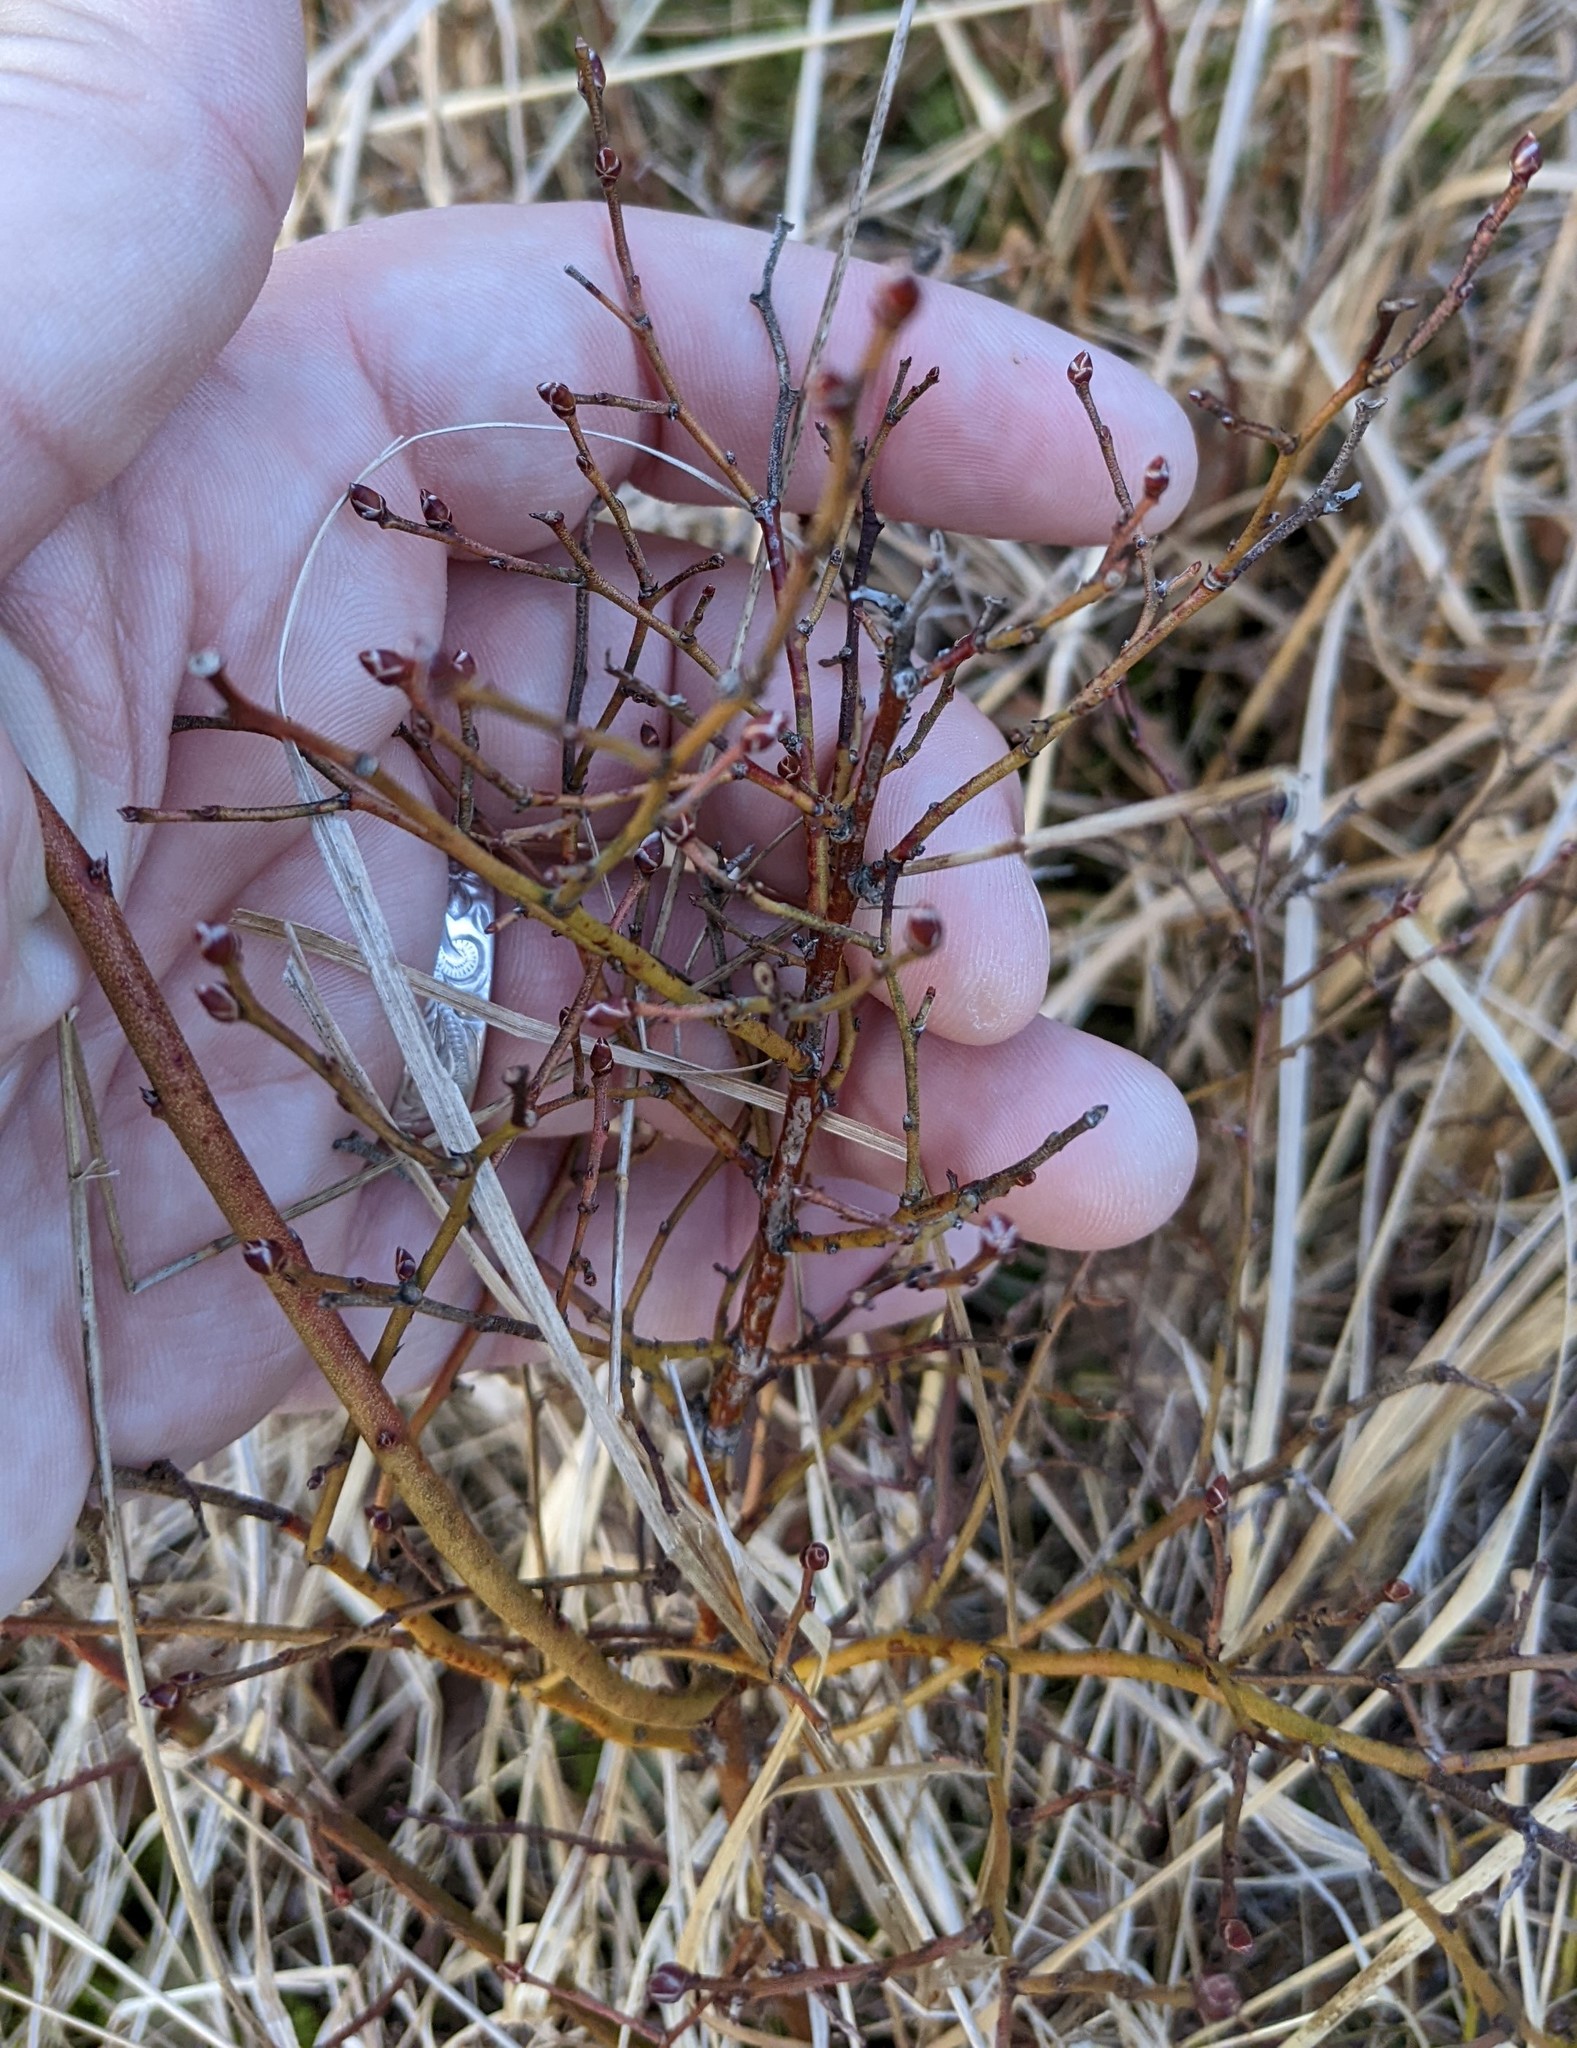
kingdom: Plantae
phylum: Tracheophyta
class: Magnoliopsida
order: Ericales
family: Ericaceae
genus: Vaccinium
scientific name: Vaccinium angustifolium
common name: Early lowbush blueberry
